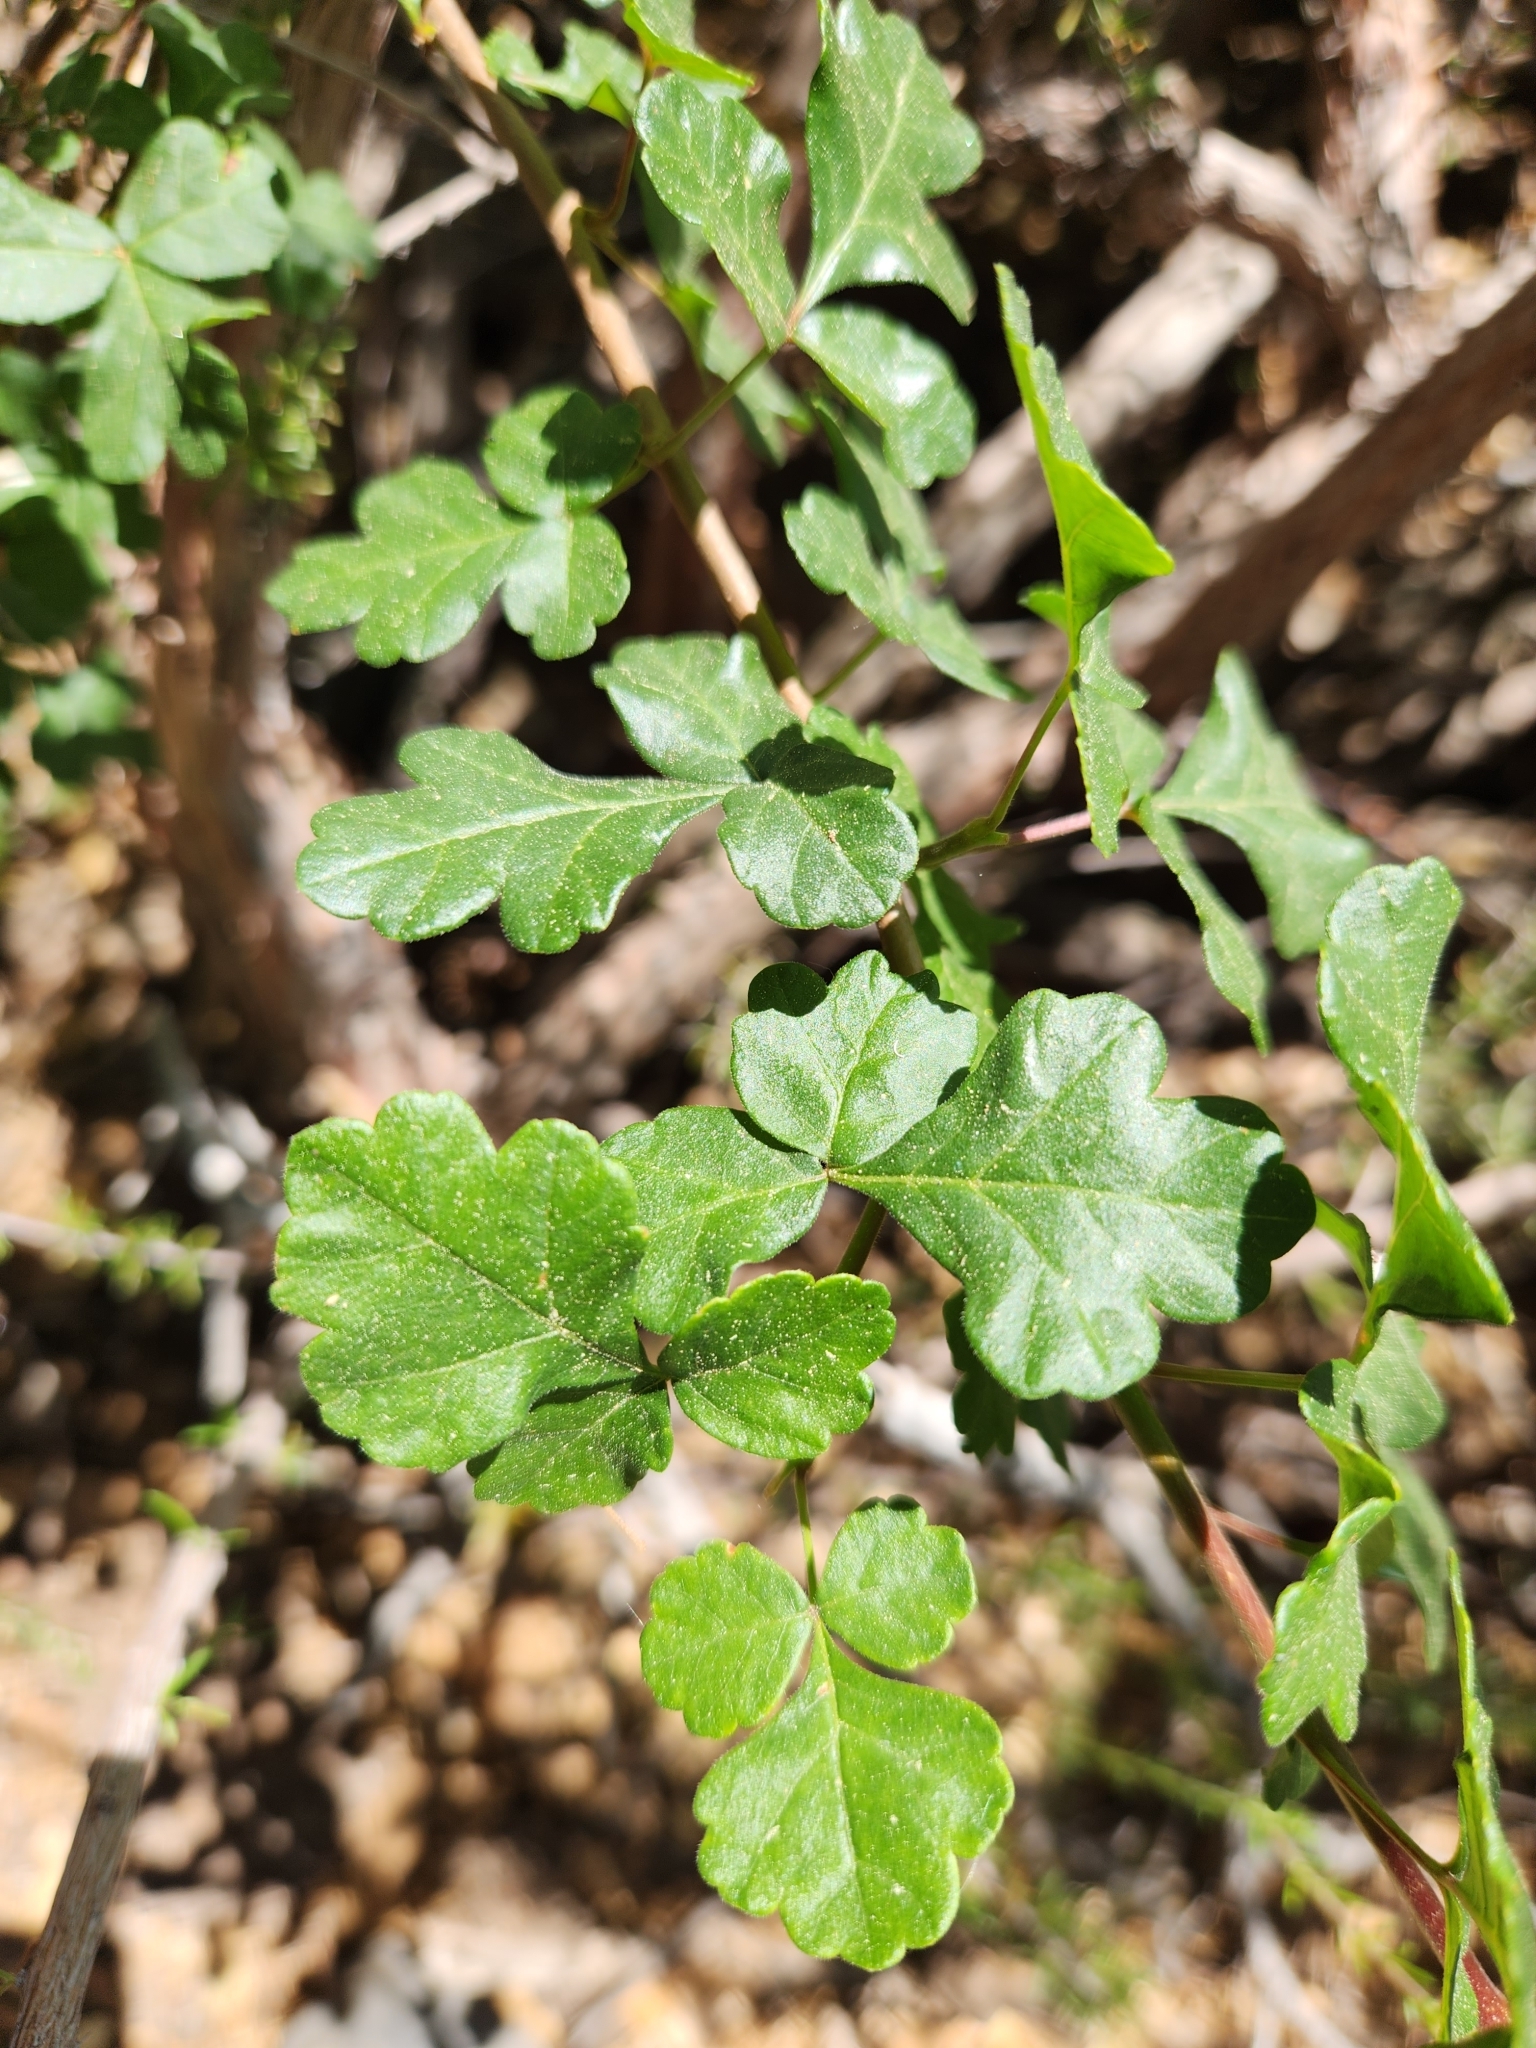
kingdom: Plantae
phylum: Tracheophyta
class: Magnoliopsida
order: Sapindales
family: Anacardiaceae
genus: Rhus
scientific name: Rhus aromatica
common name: Aromatic sumac
